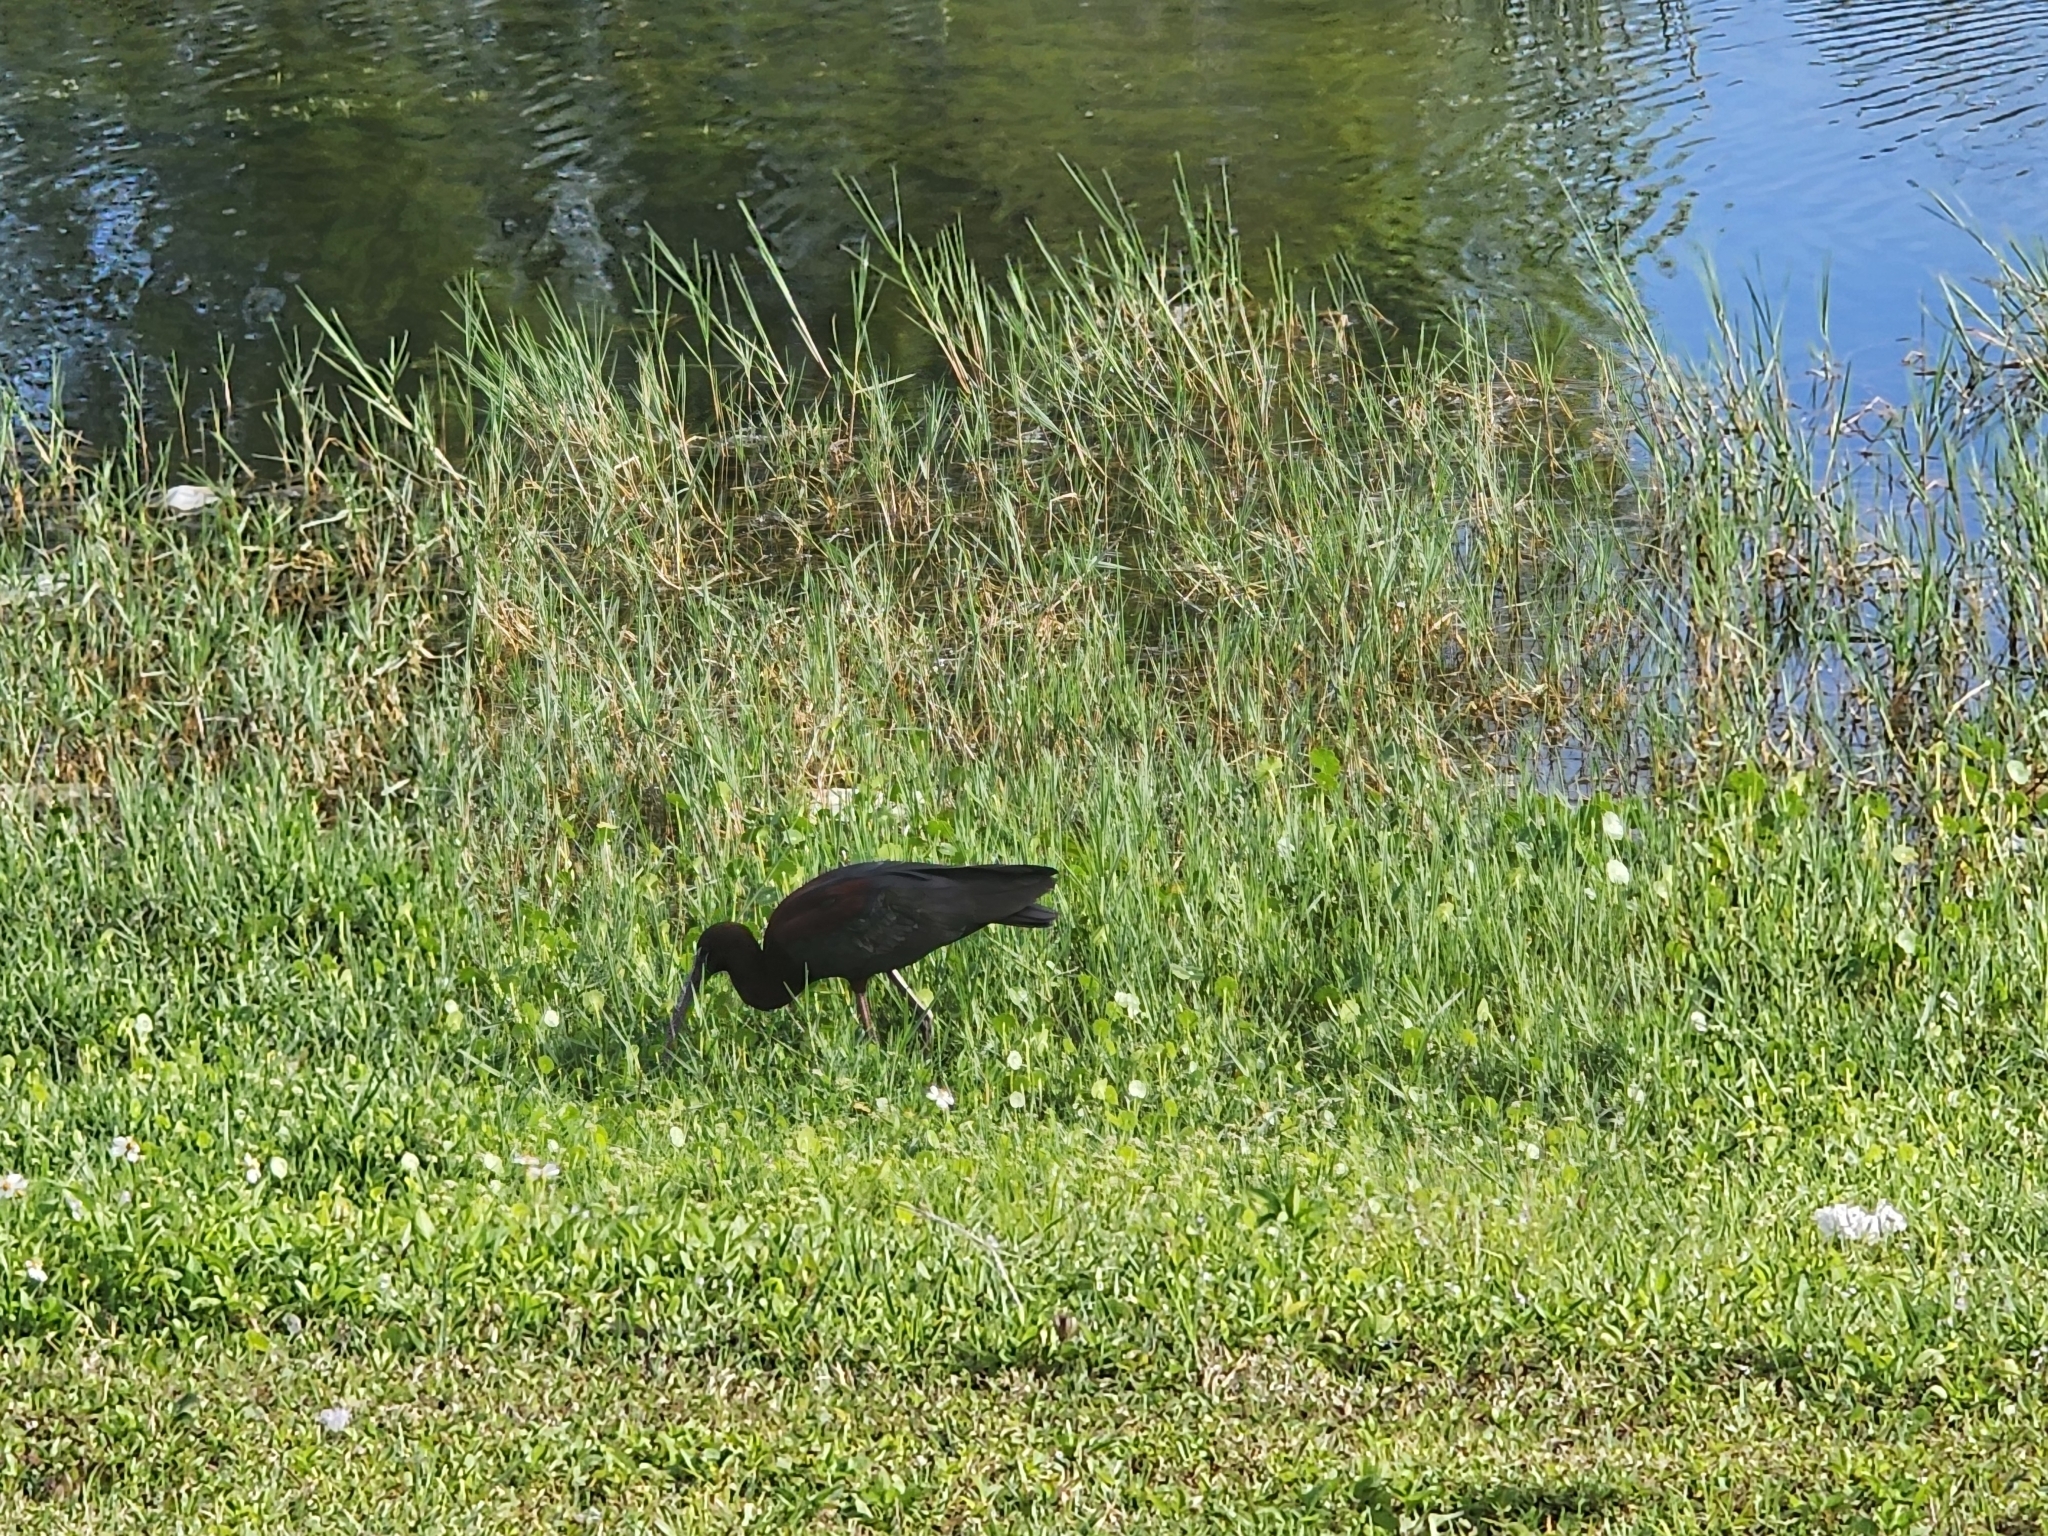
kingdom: Animalia
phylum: Chordata
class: Aves
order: Pelecaniformes
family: Threskiornithidae
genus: Plegadis
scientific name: Plegadis falcinellus
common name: Glossy ibis
